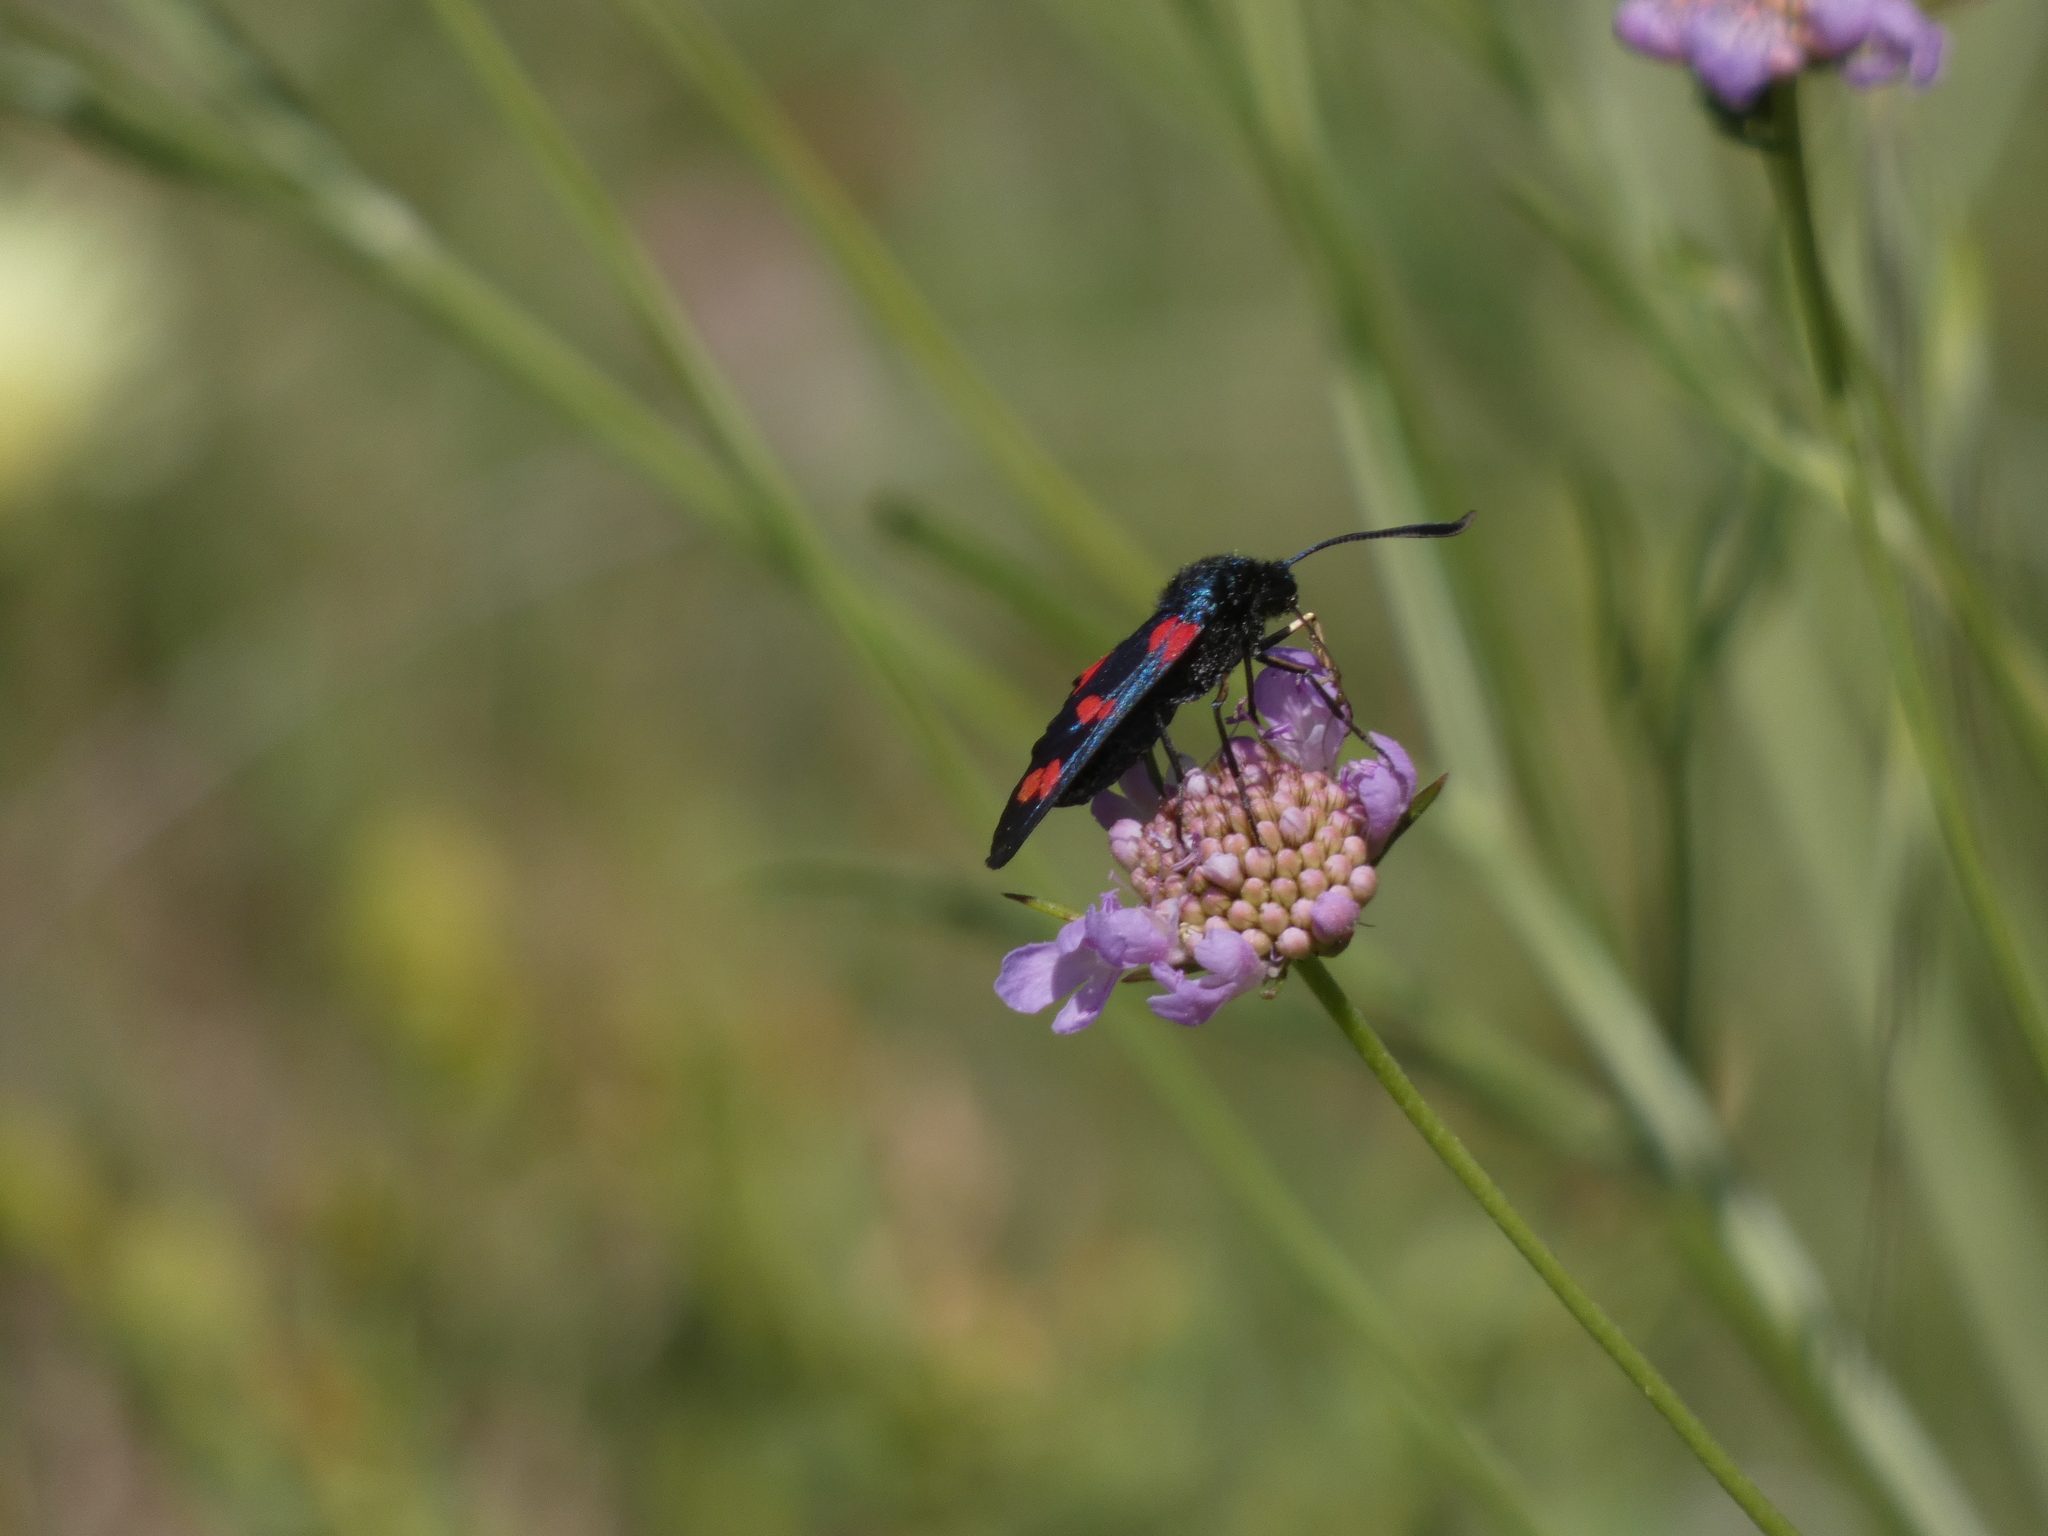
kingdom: Animalia
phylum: Arthropoda
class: Insecta
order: Lepidoptera
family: Zygaenidae
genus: Zygaena
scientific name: Zygaena filipendulae
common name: Six-spot burnet
